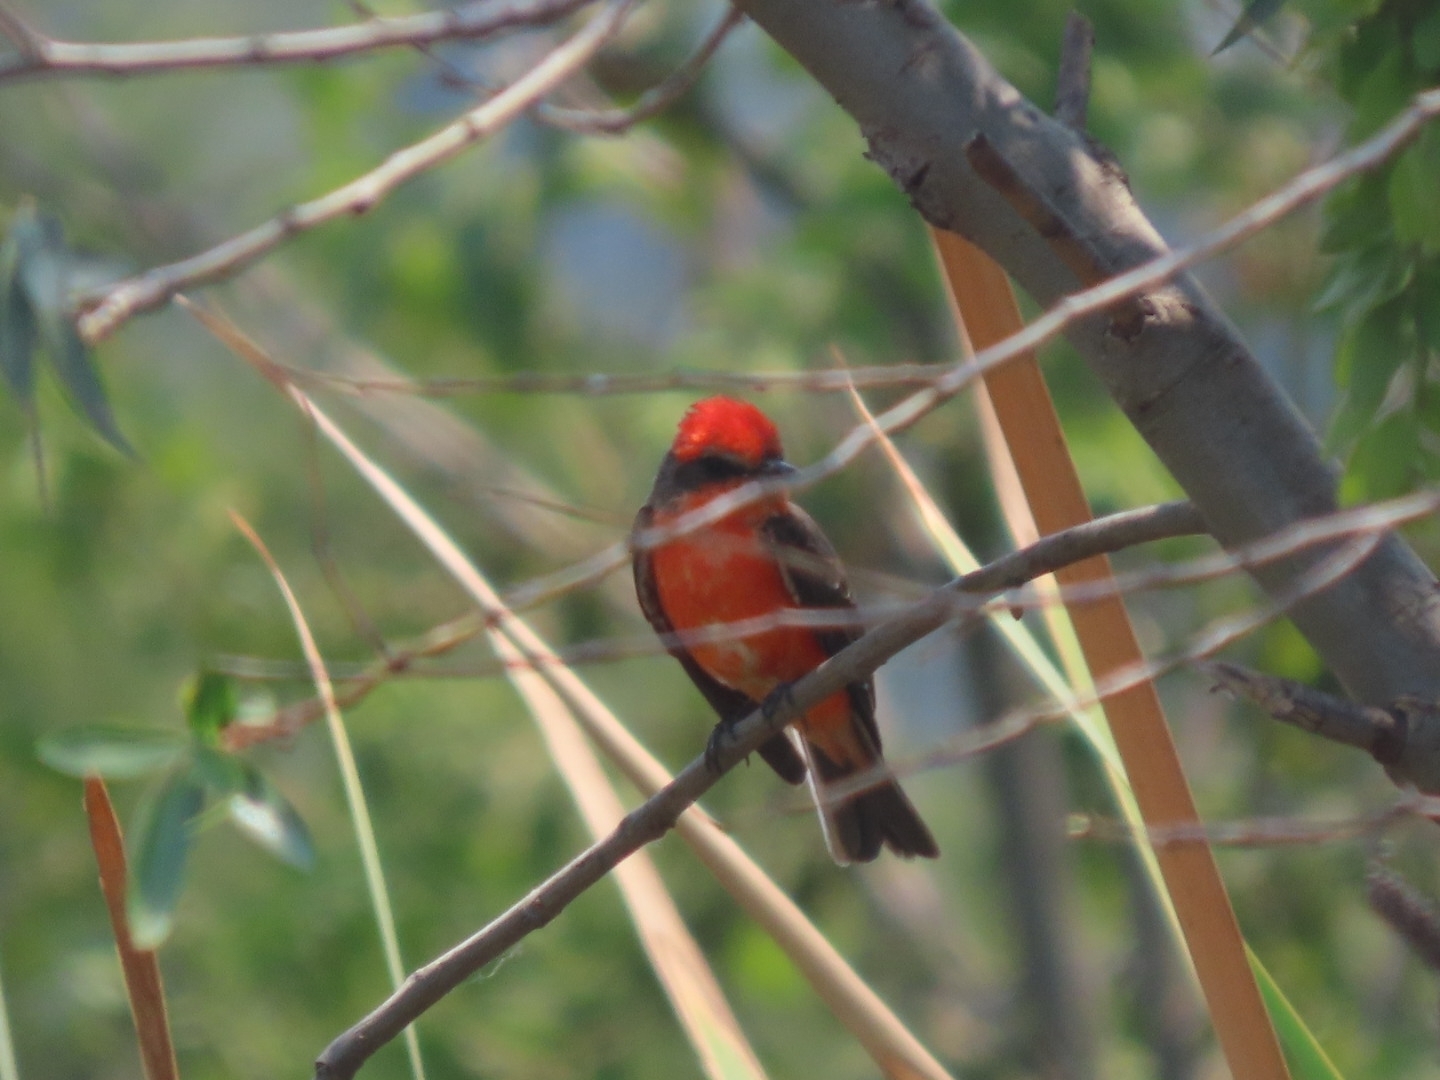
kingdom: Animalia
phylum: Chordata
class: Aves
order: Passeriformes
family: Tyrannidae
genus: Pyrocephalus
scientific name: Pyrocephalus rubinus
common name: Vermilion flycatcher
